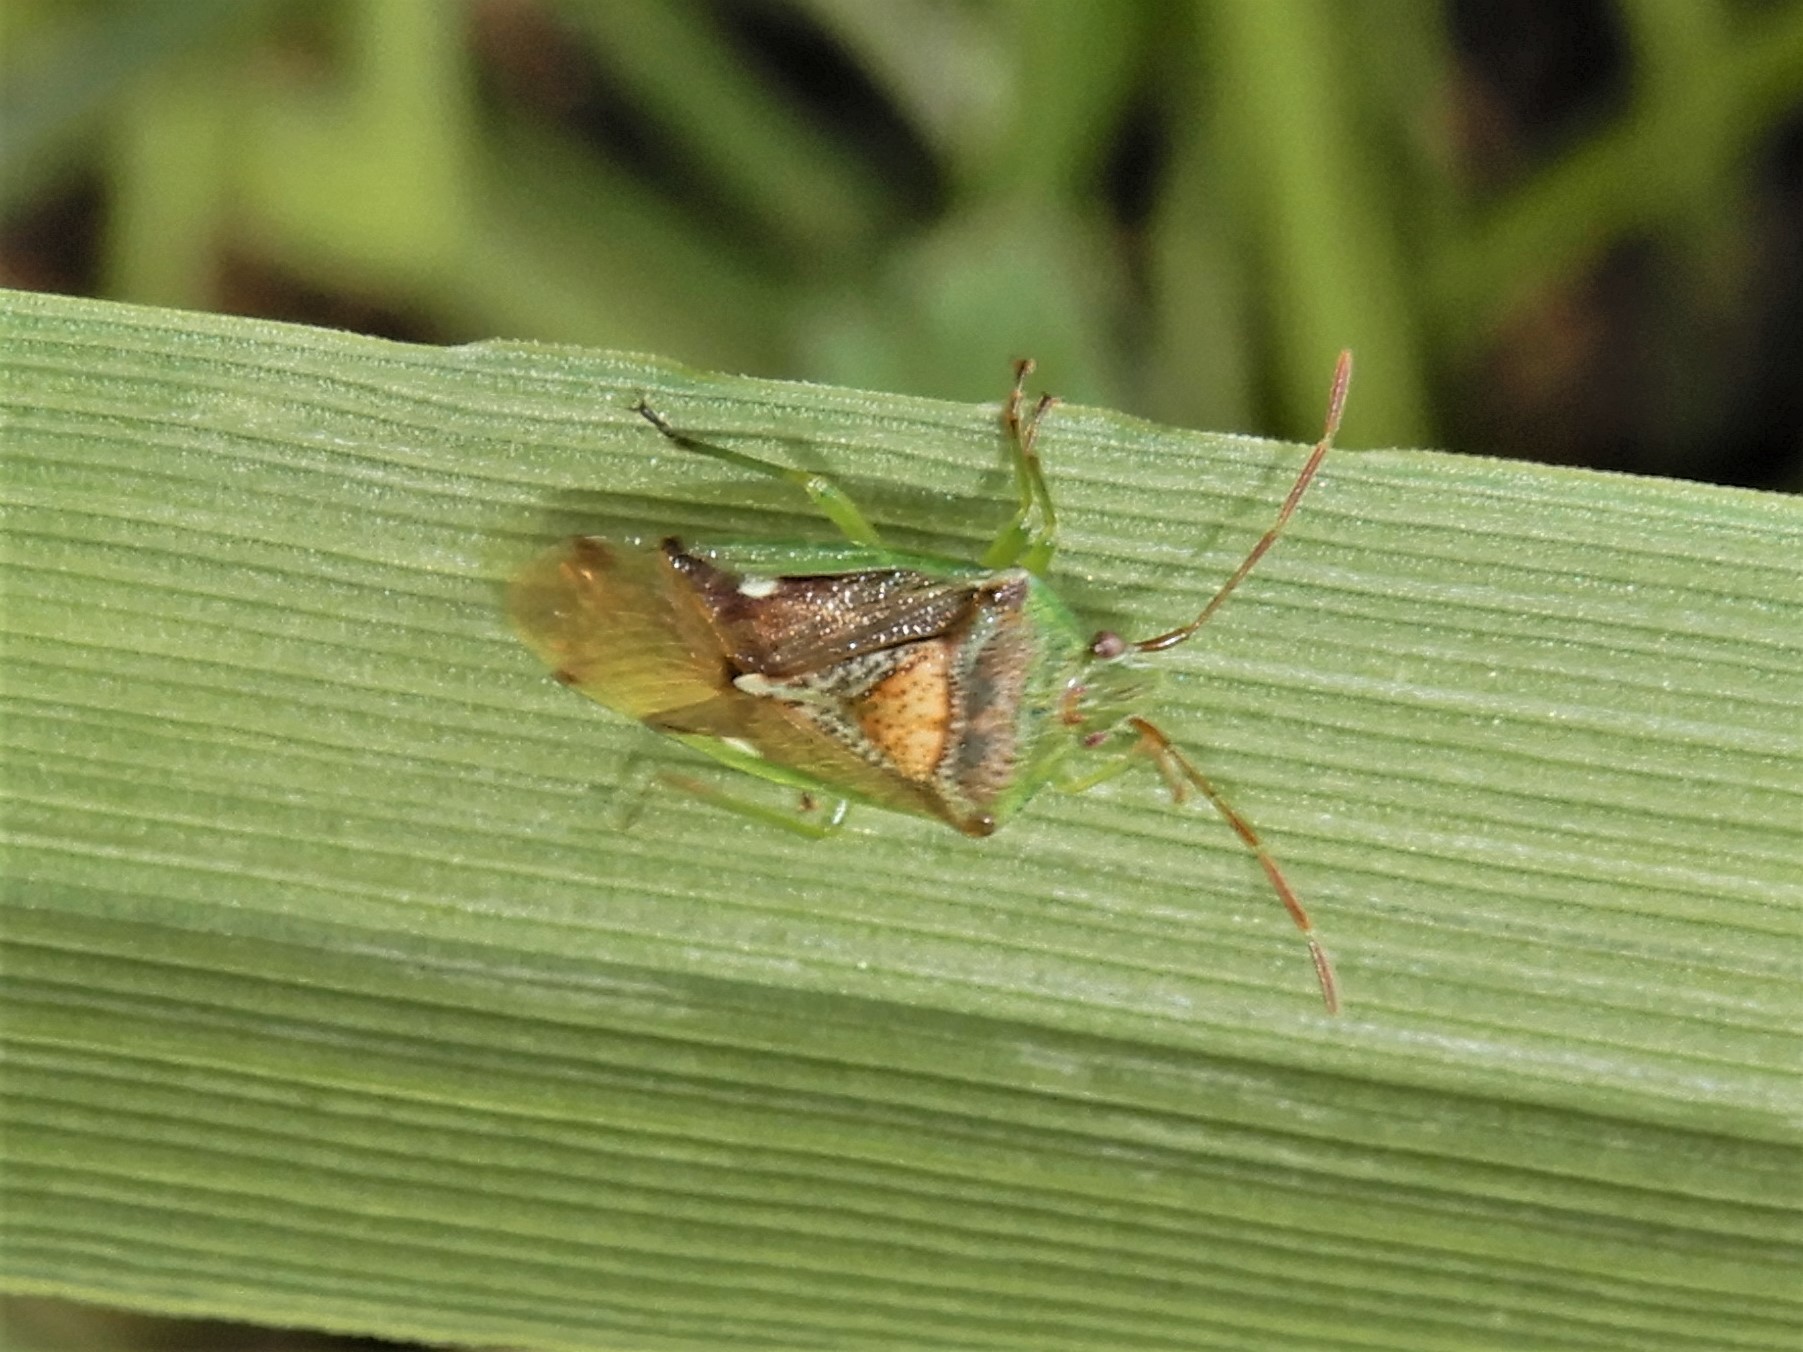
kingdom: Animalia
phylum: Arthropoda
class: Insecta
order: Hemiptera
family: Acanthosomatidae
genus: Oncacontias
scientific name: Oncacontias vittatus
